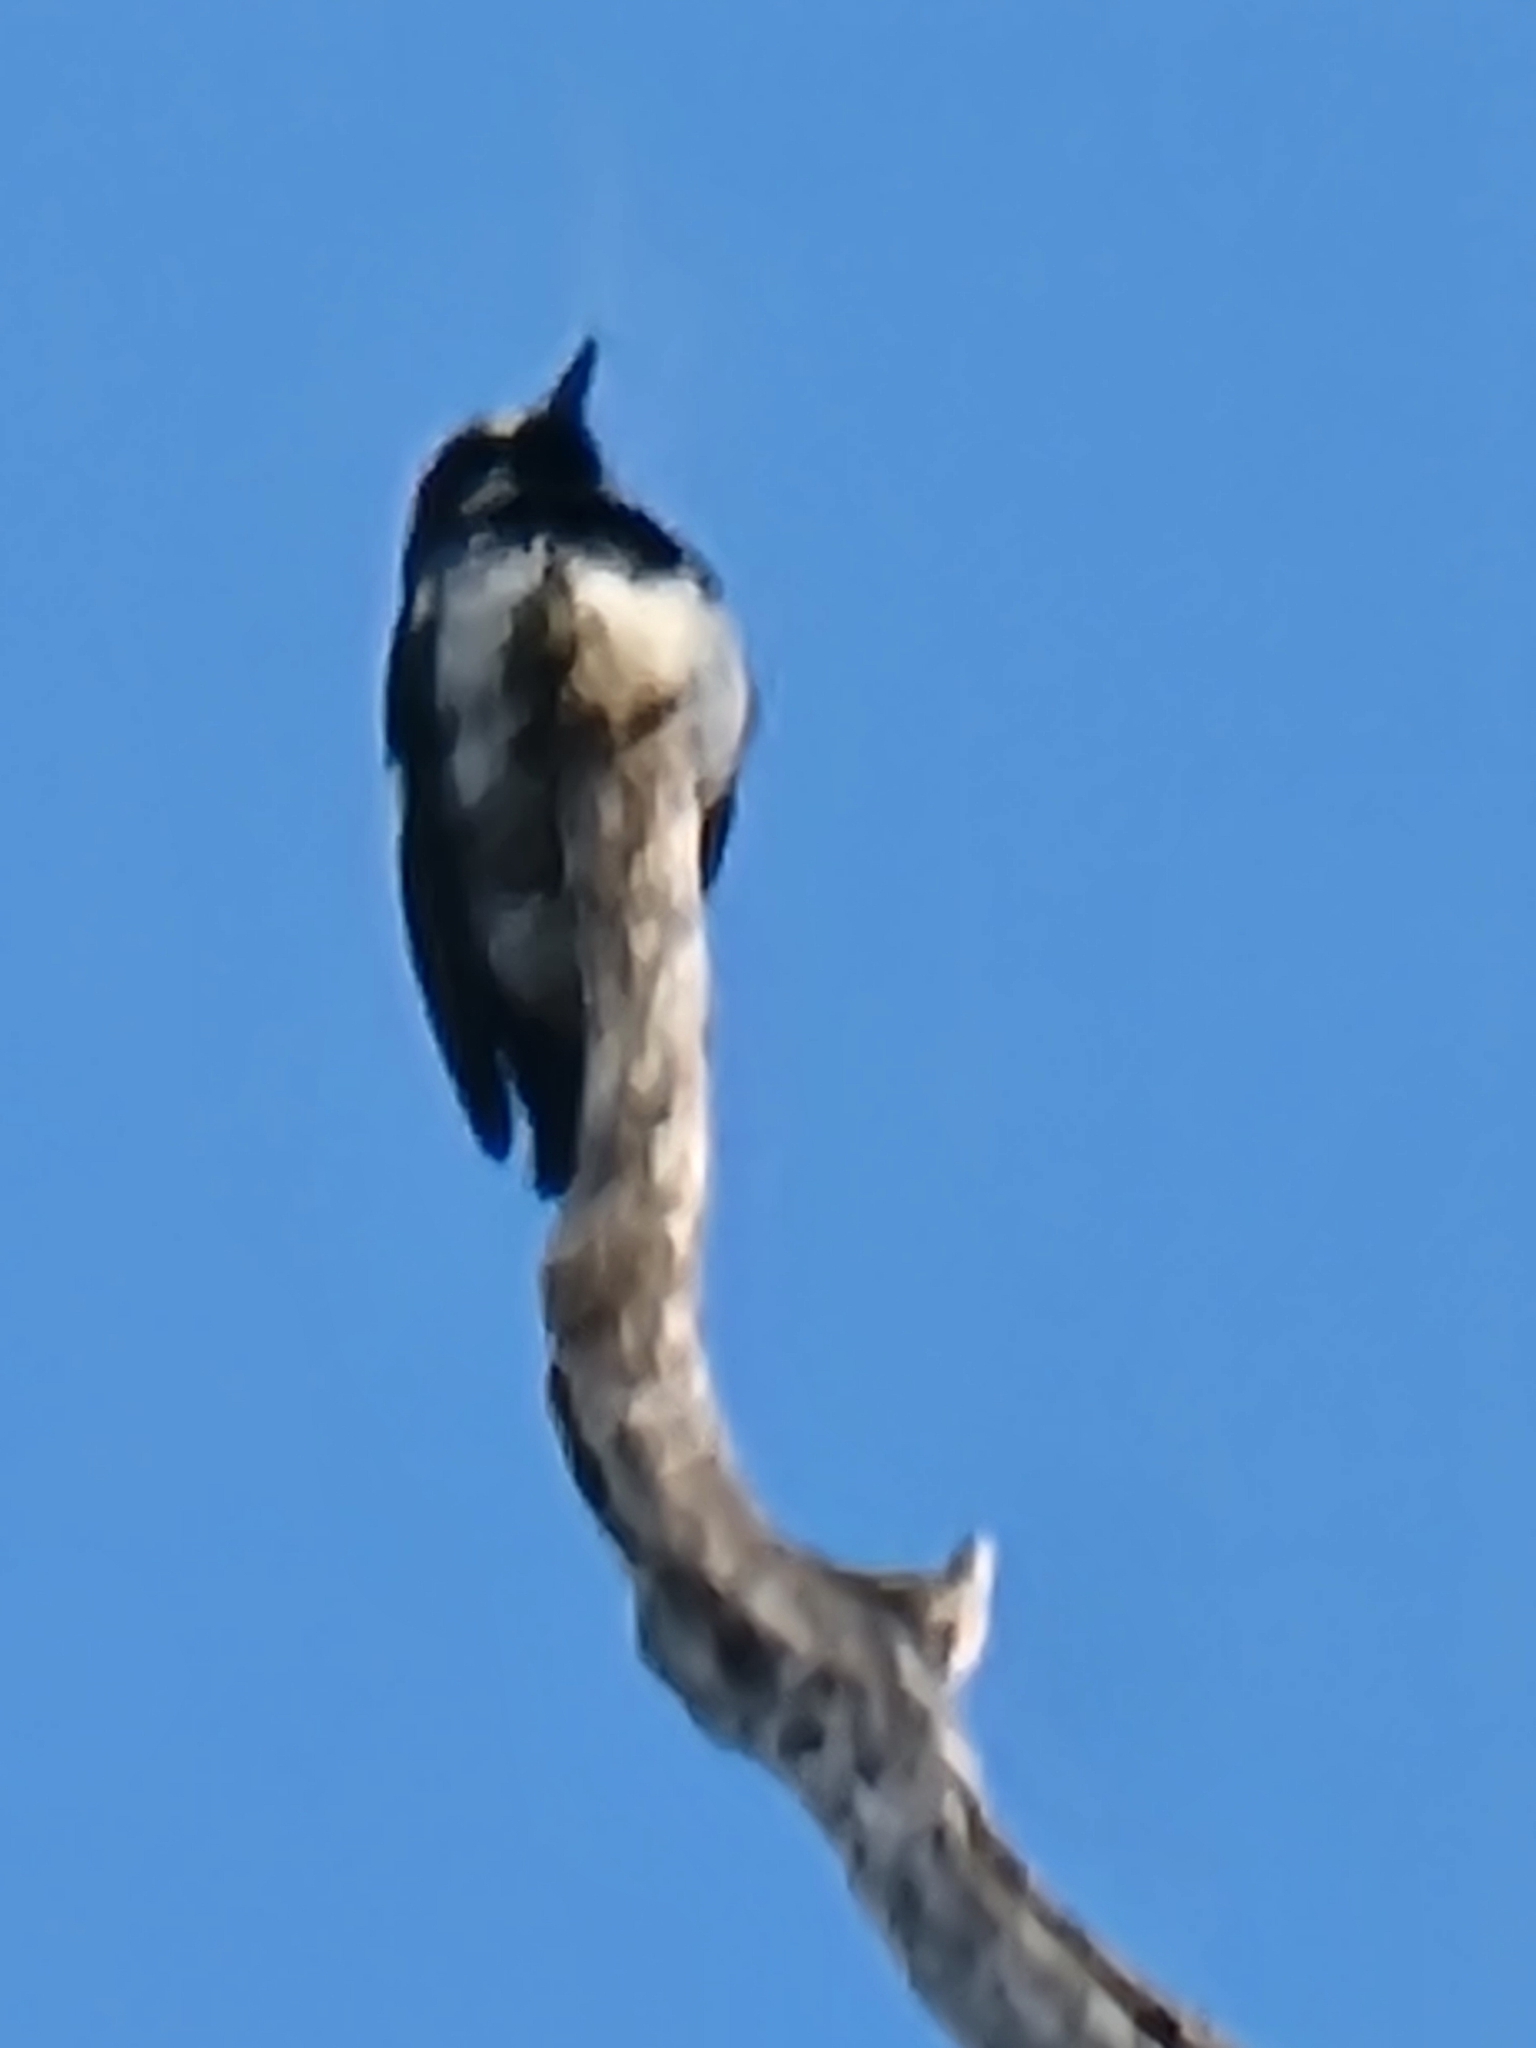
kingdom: Animalia
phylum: Chordata
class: Aves
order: Piciformes
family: Picidae
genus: Melanerpes
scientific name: Melanerpes formicivorus
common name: Acorn woodpecker
